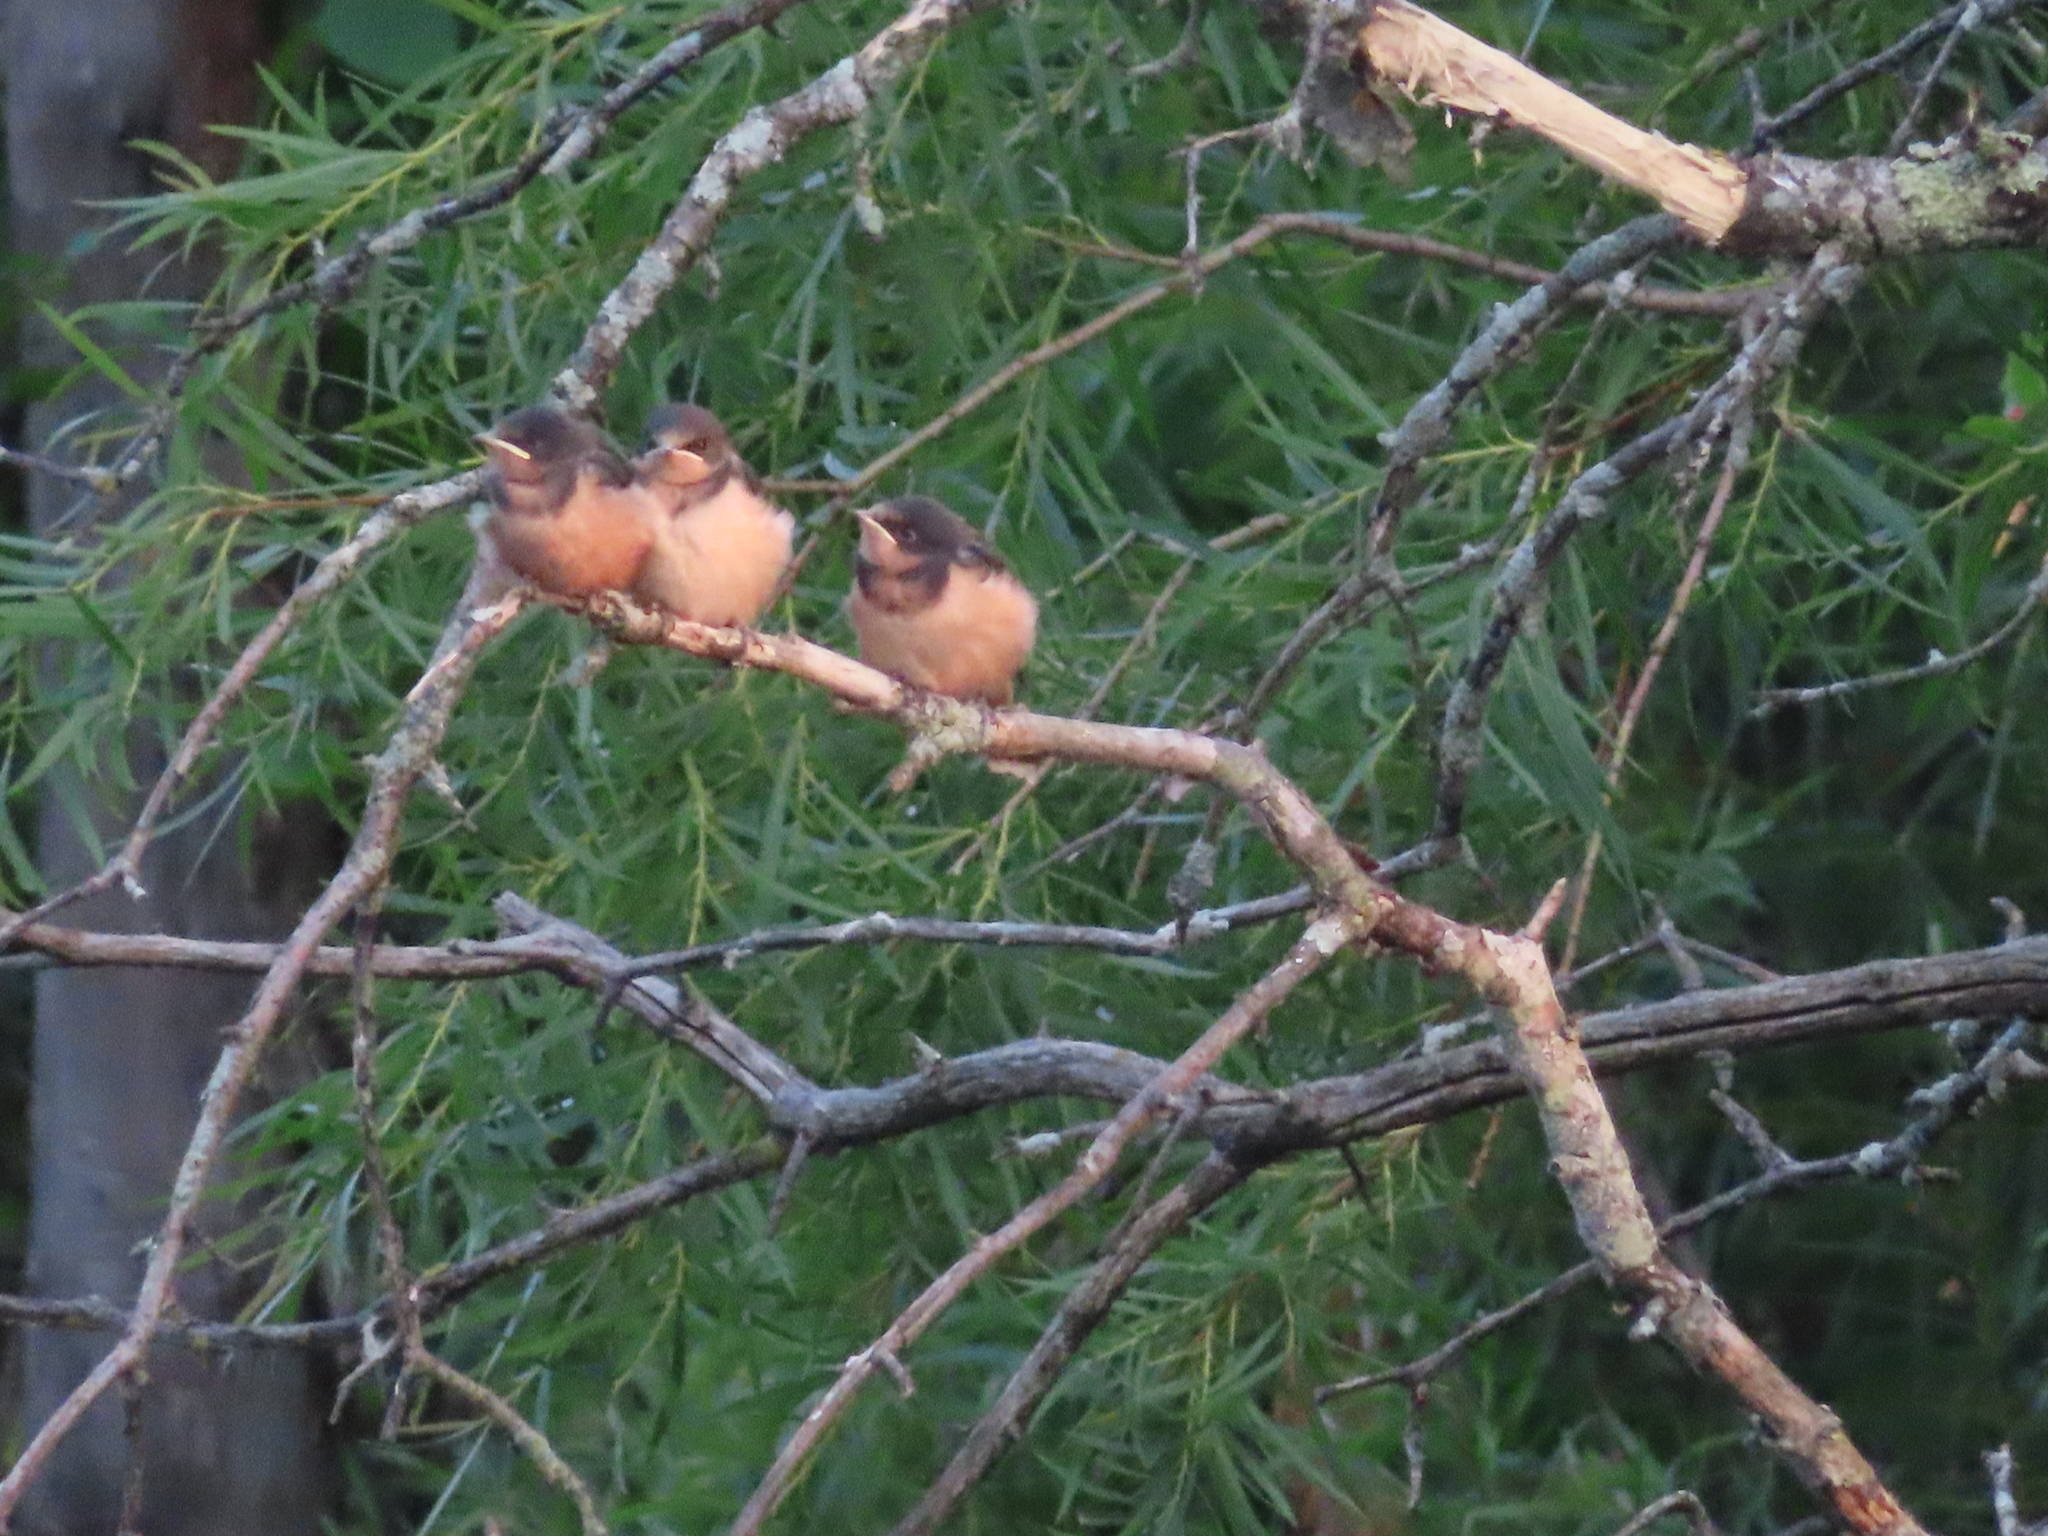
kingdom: Animalia
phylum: Chordata
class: Aves
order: Passeriformes
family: Hirundinidae
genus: Hirundo
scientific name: Hirundo rustica
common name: Barn swallow
